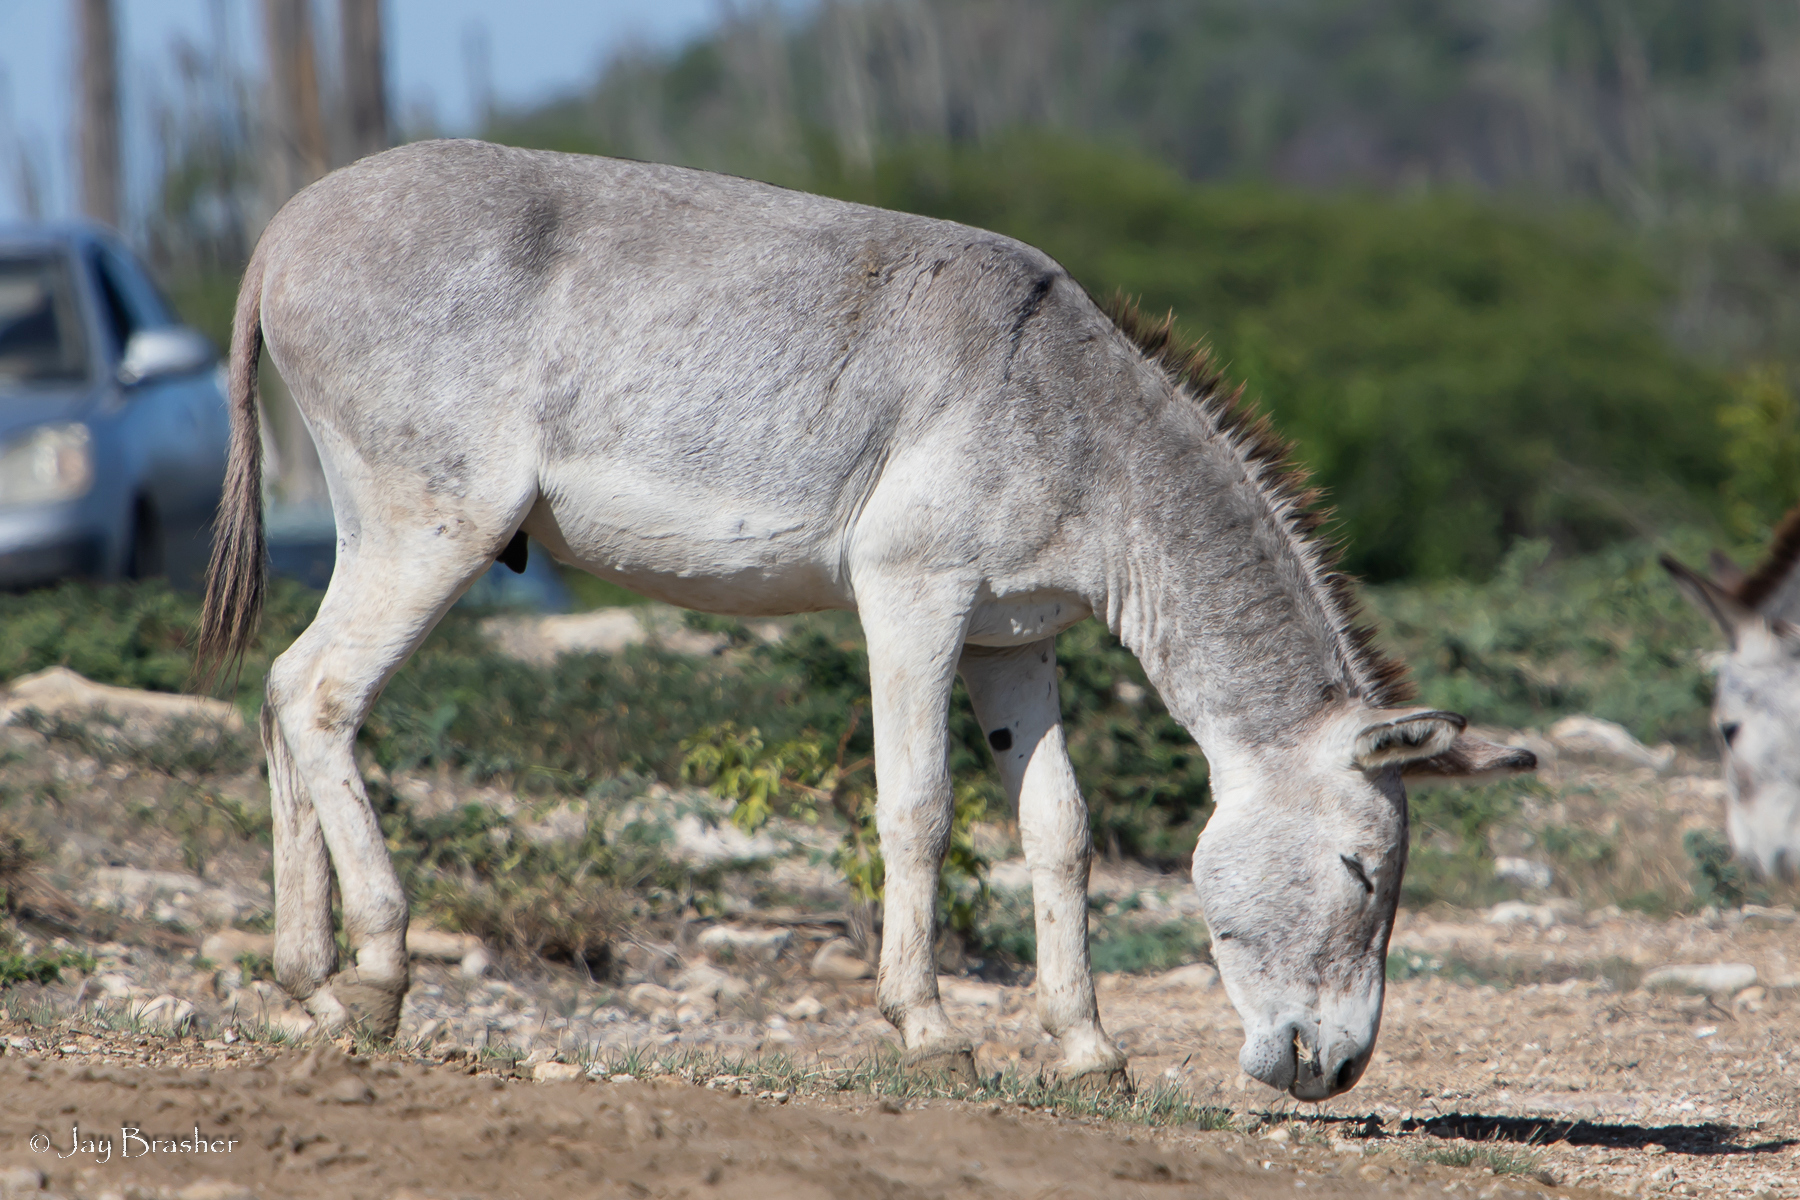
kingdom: Animalia
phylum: Chordata
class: Mammalia
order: Perissodactyla
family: Equidae
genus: Equus
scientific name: Equus asinus
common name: Ass
